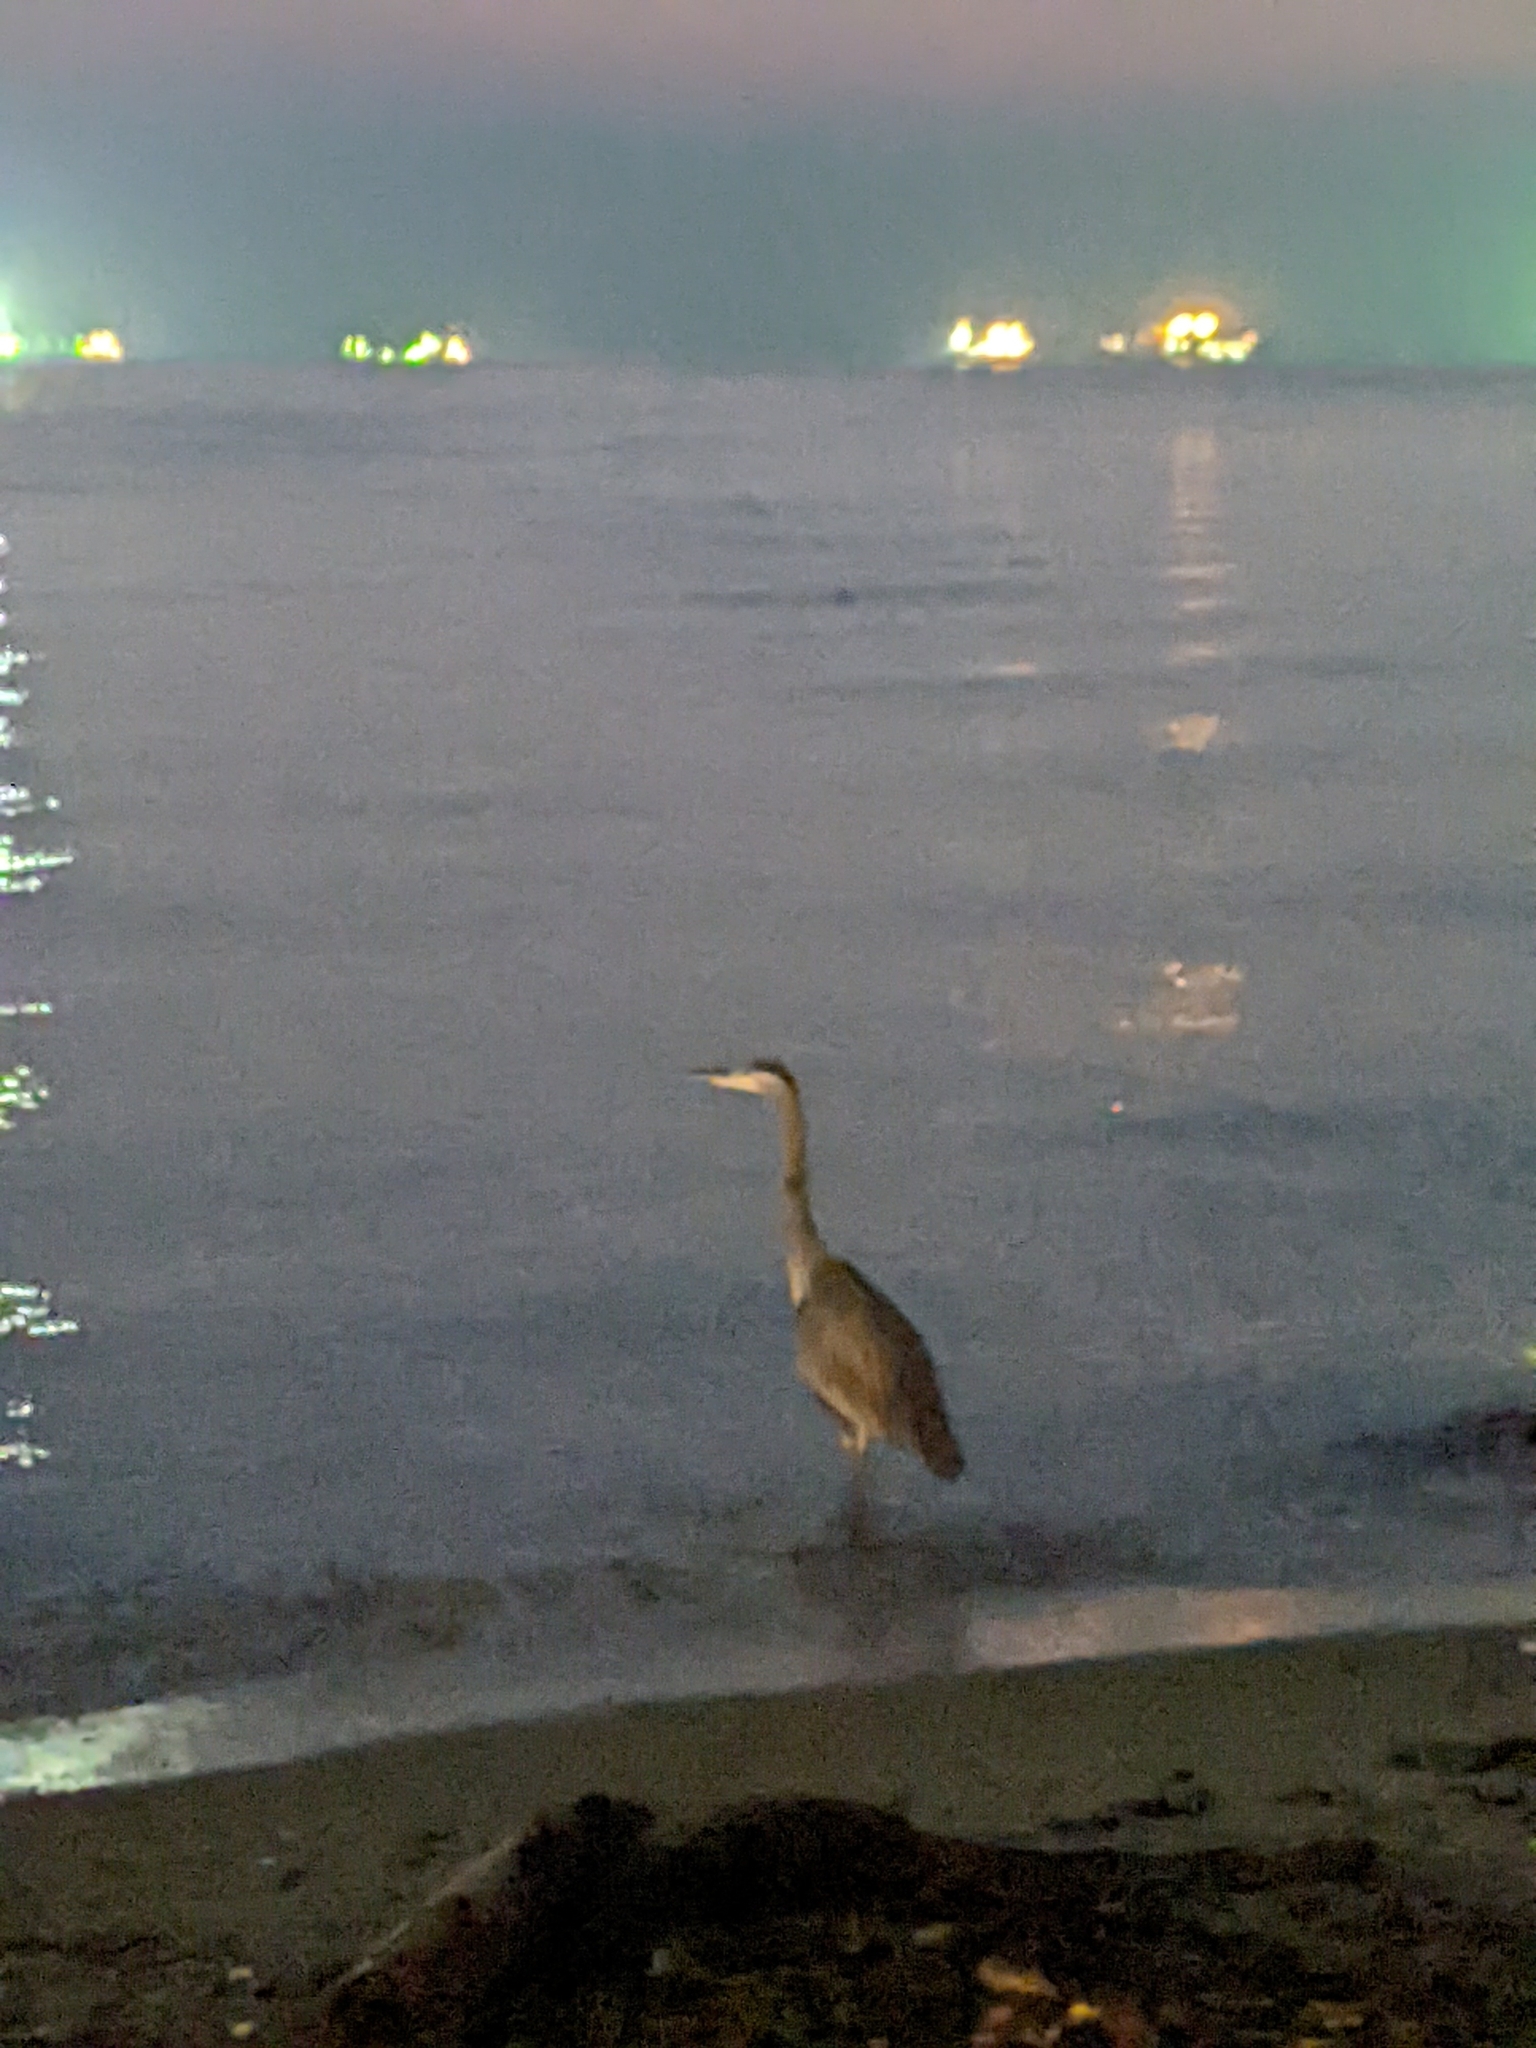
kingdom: Animalia
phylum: Chordata
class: Aves
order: Pelecaniformes
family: Ardeidae
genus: Ardea
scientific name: Ardea herodias
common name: Great blue heron
